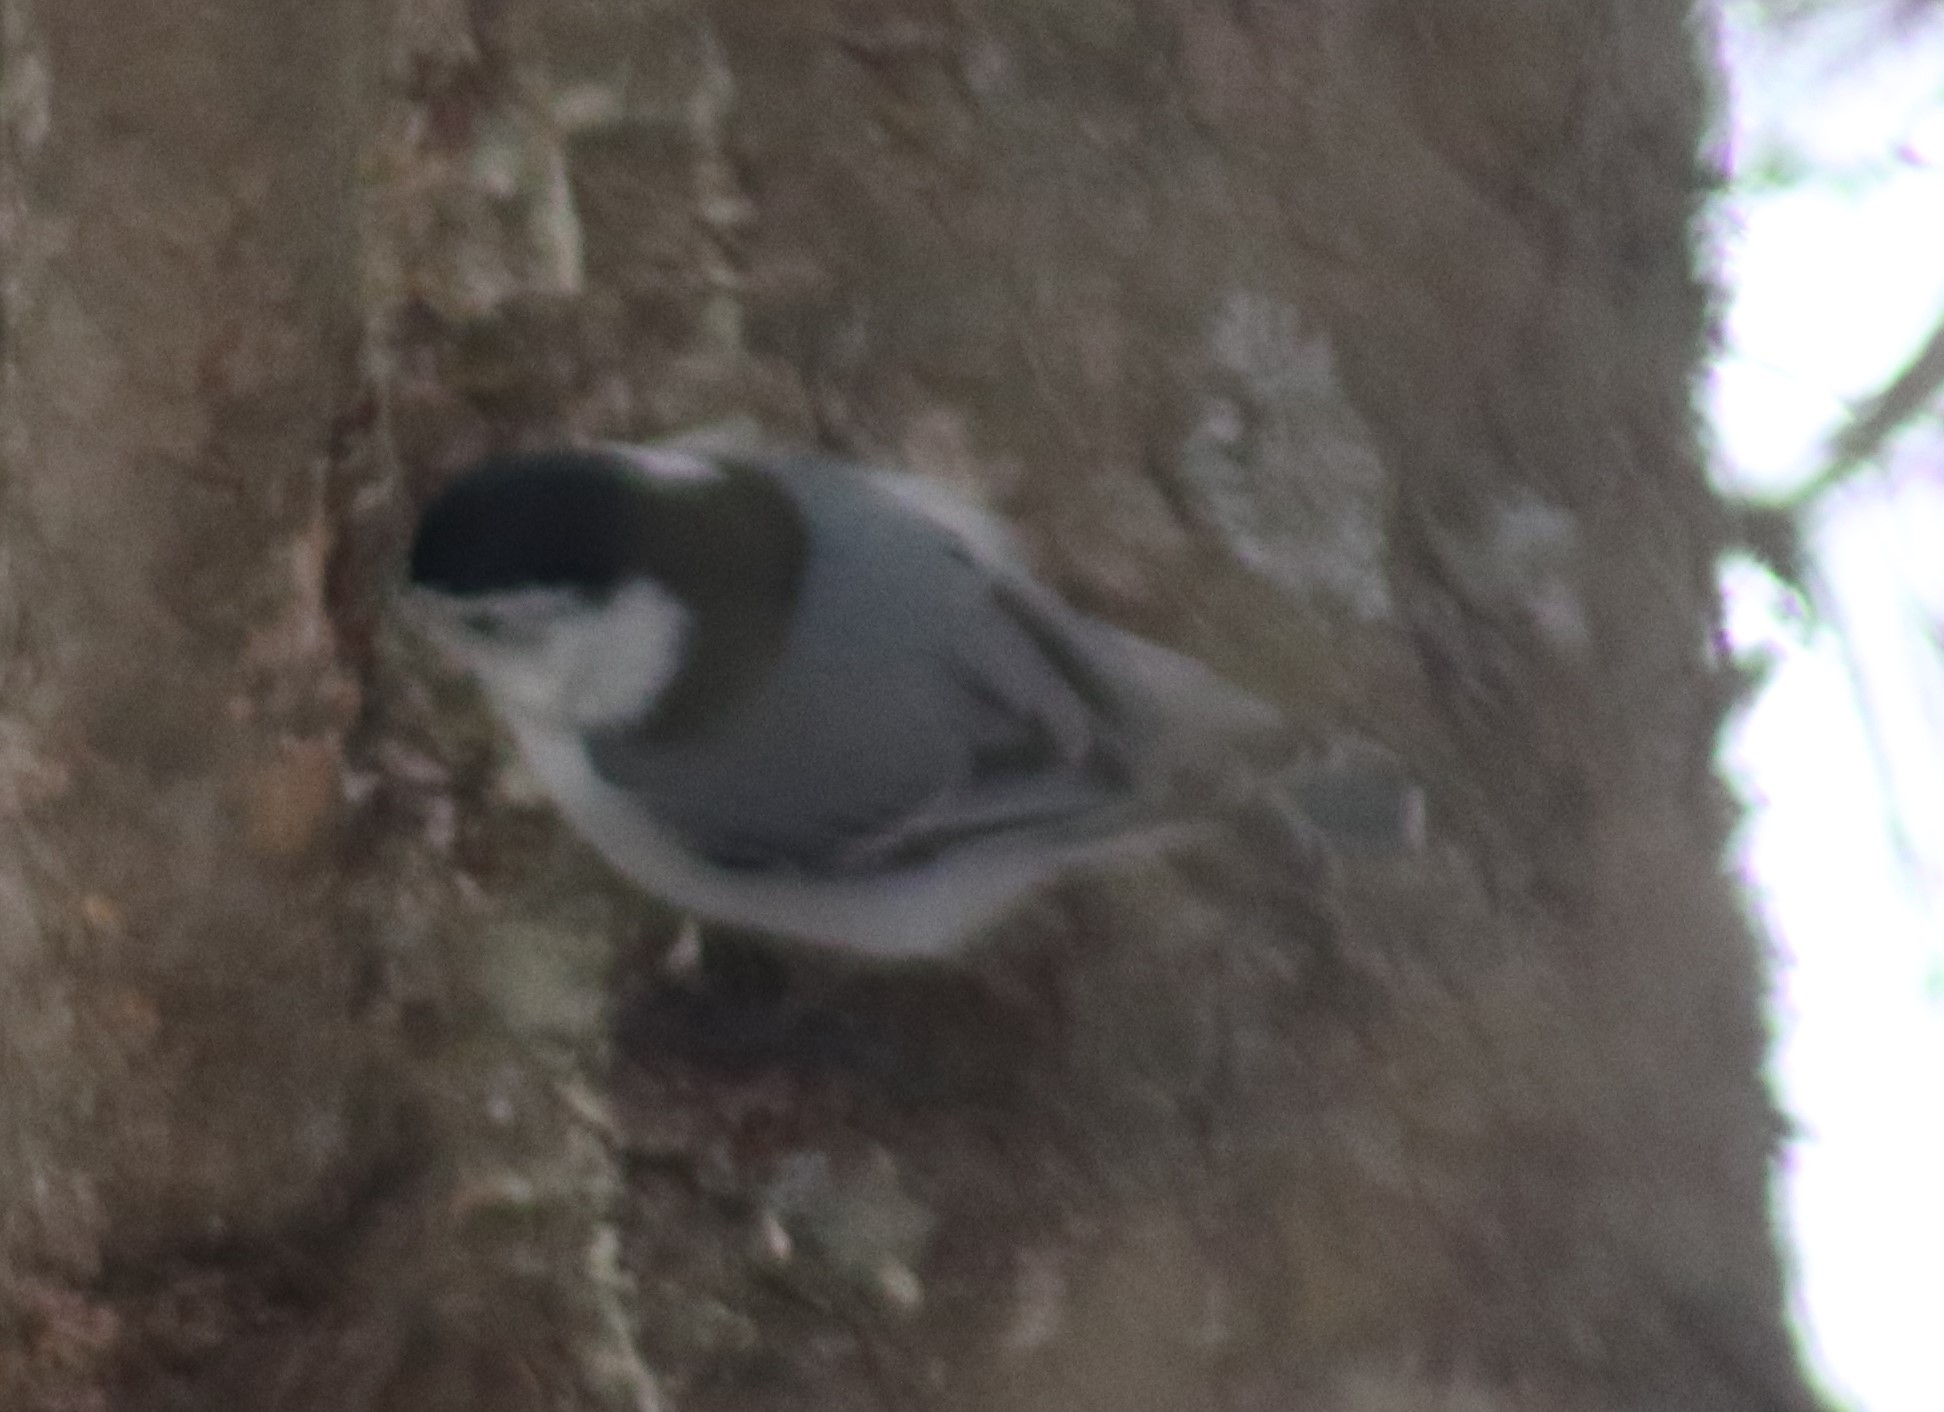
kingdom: Animalia
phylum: Chordata
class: Aves
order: Passeriformes
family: Sittidae
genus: Sitta
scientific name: Sitta carolinensis
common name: White-breasted nuthatch
